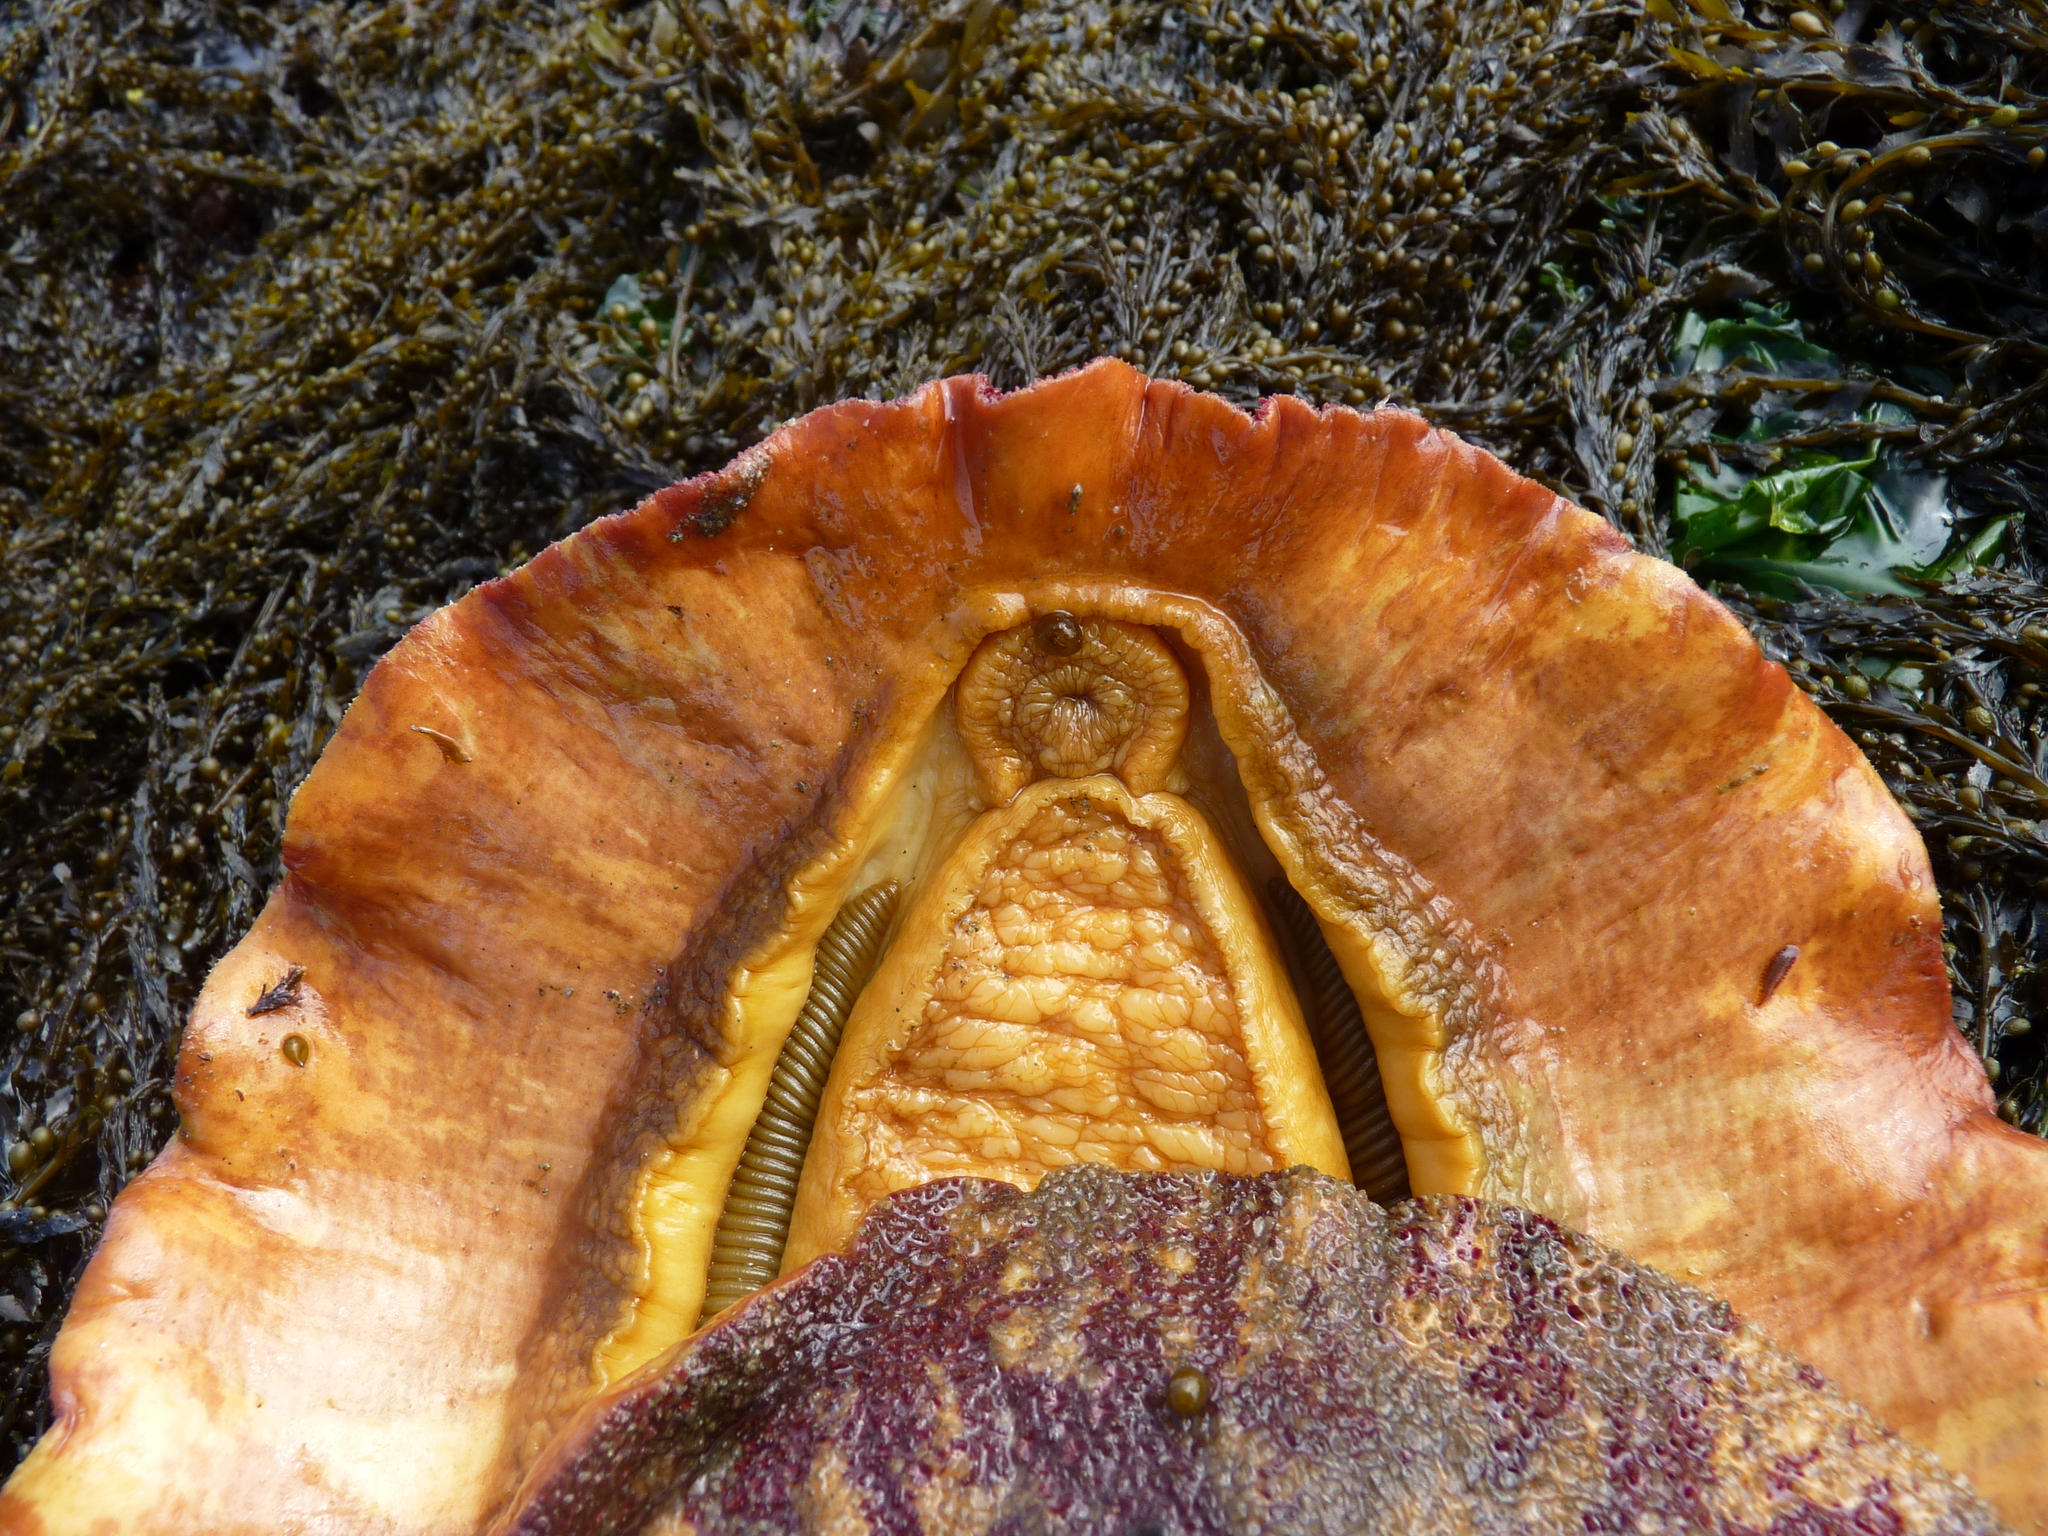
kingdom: Animalia
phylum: Mollusca
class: Polyplacophora
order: Chitonida
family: Acanthochitonidae
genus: Cryptochiton
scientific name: Cryptochiton stelleri
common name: Giant pacific chiton
